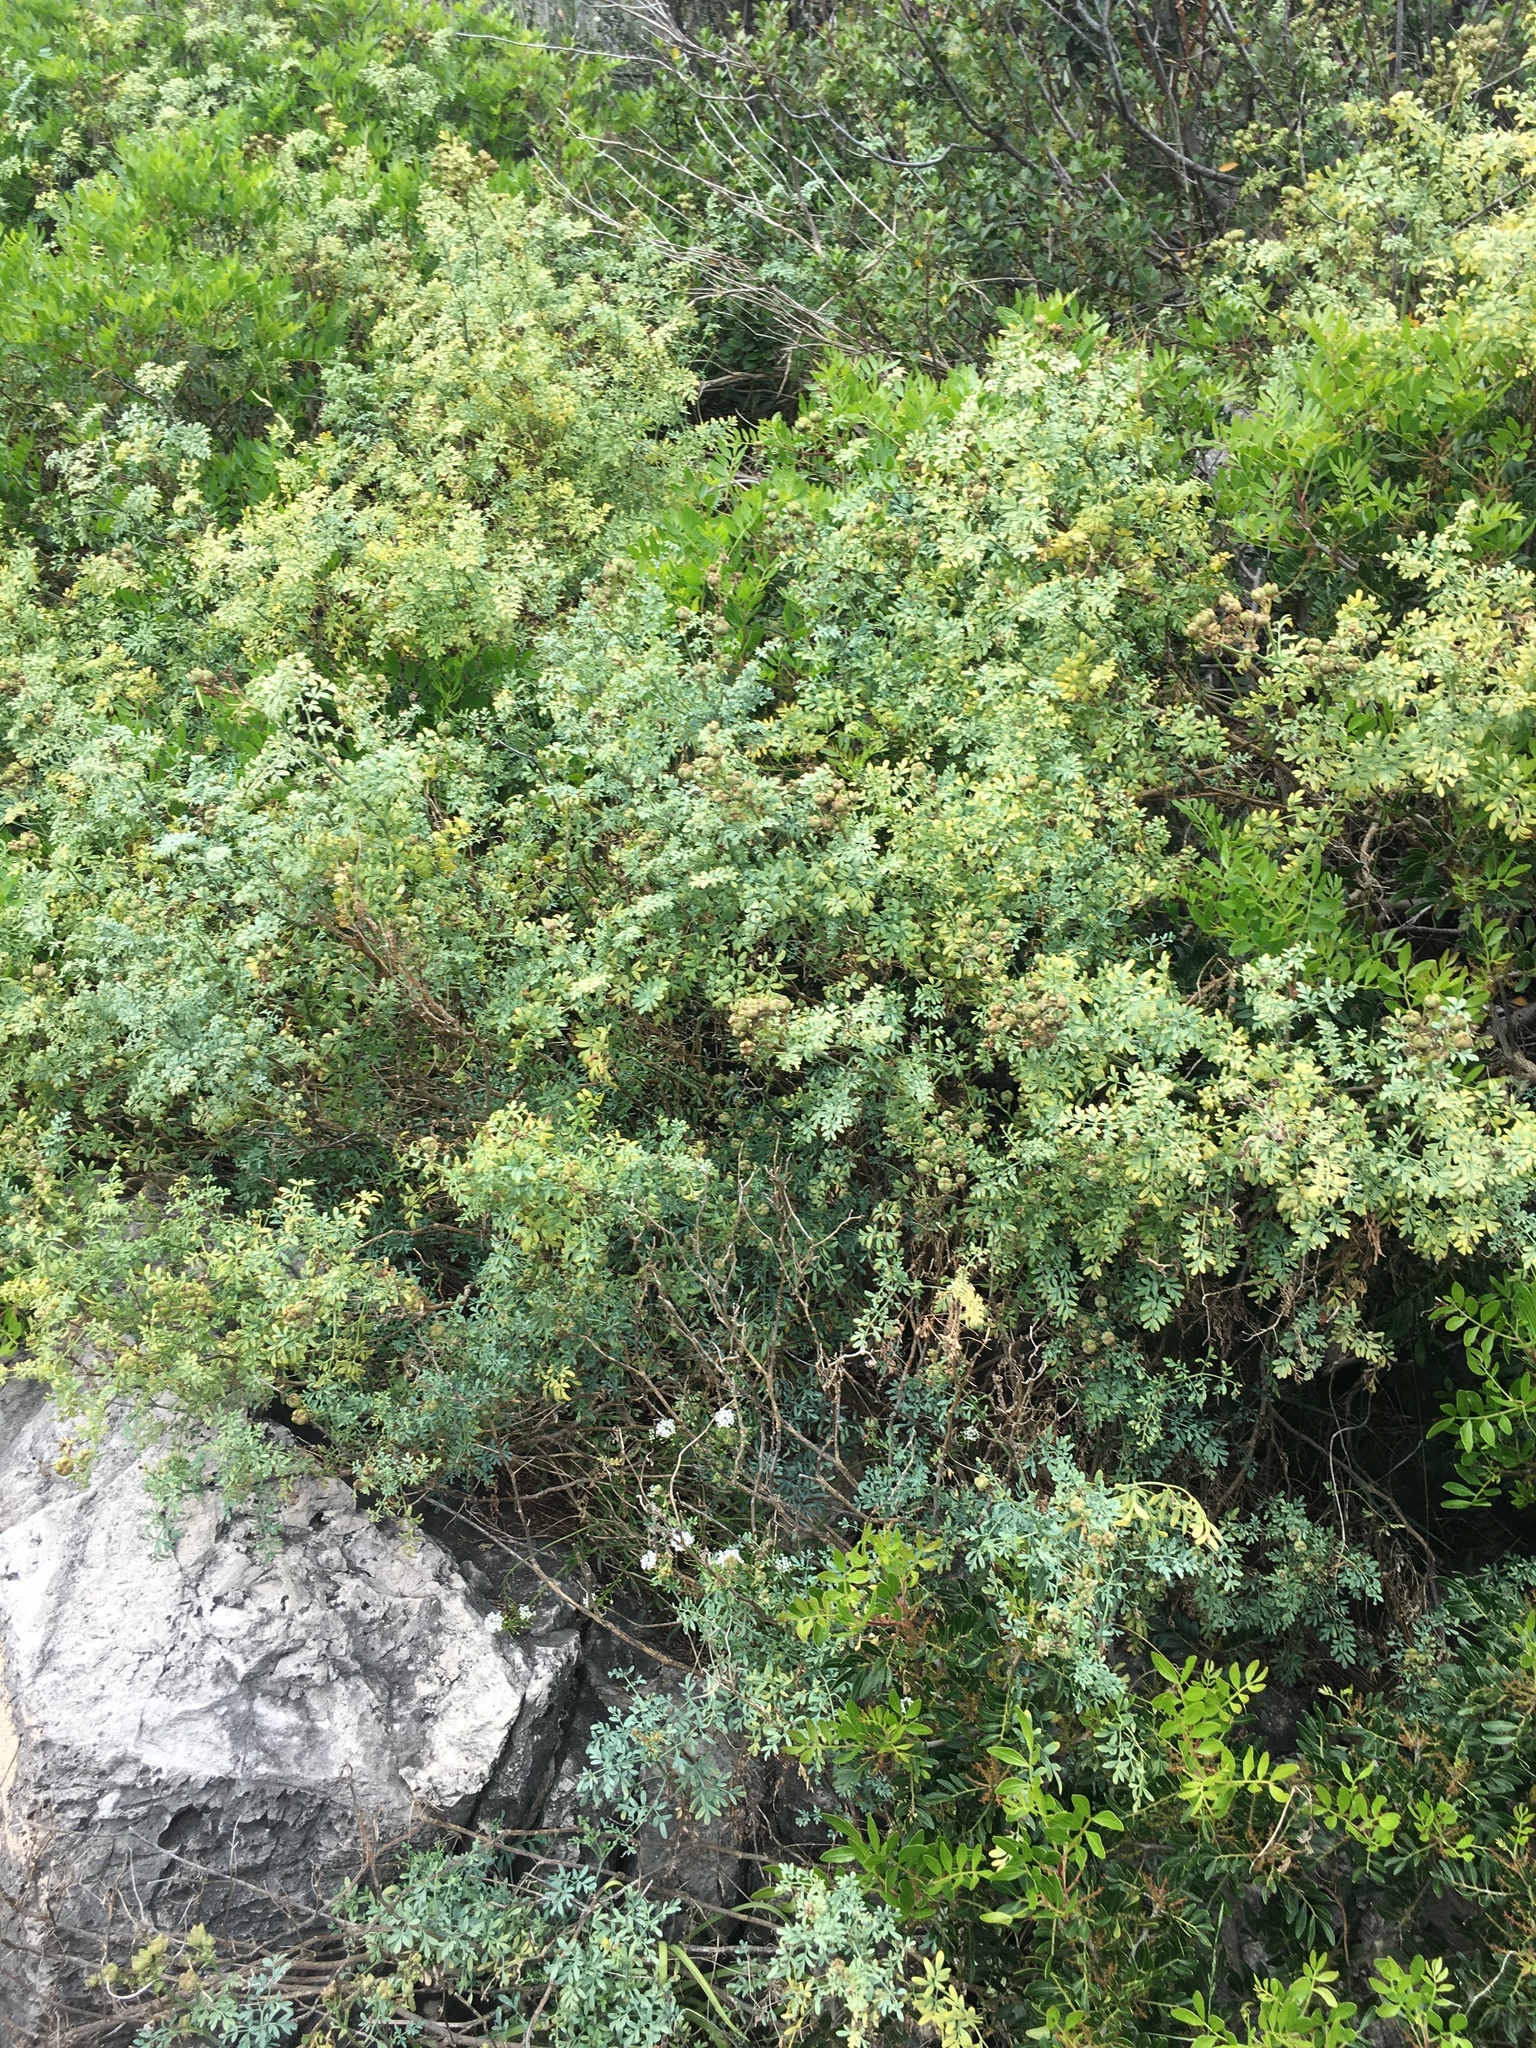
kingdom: Plantae
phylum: Tracheophyta
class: Magnoliopsida
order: Sapindales
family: Anacardiaceae
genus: Pistacia
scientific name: Pistacia lentiscus
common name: Lentisk
